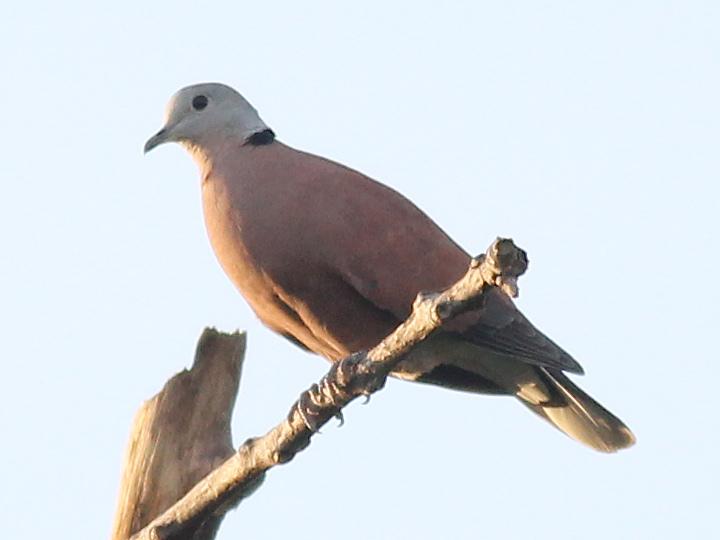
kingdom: Animalia
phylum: Chordata
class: Aves
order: Columbiformes
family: Columbidae
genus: Streptopelia
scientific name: Streptopelia tranquebarica
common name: Red turtle dove
